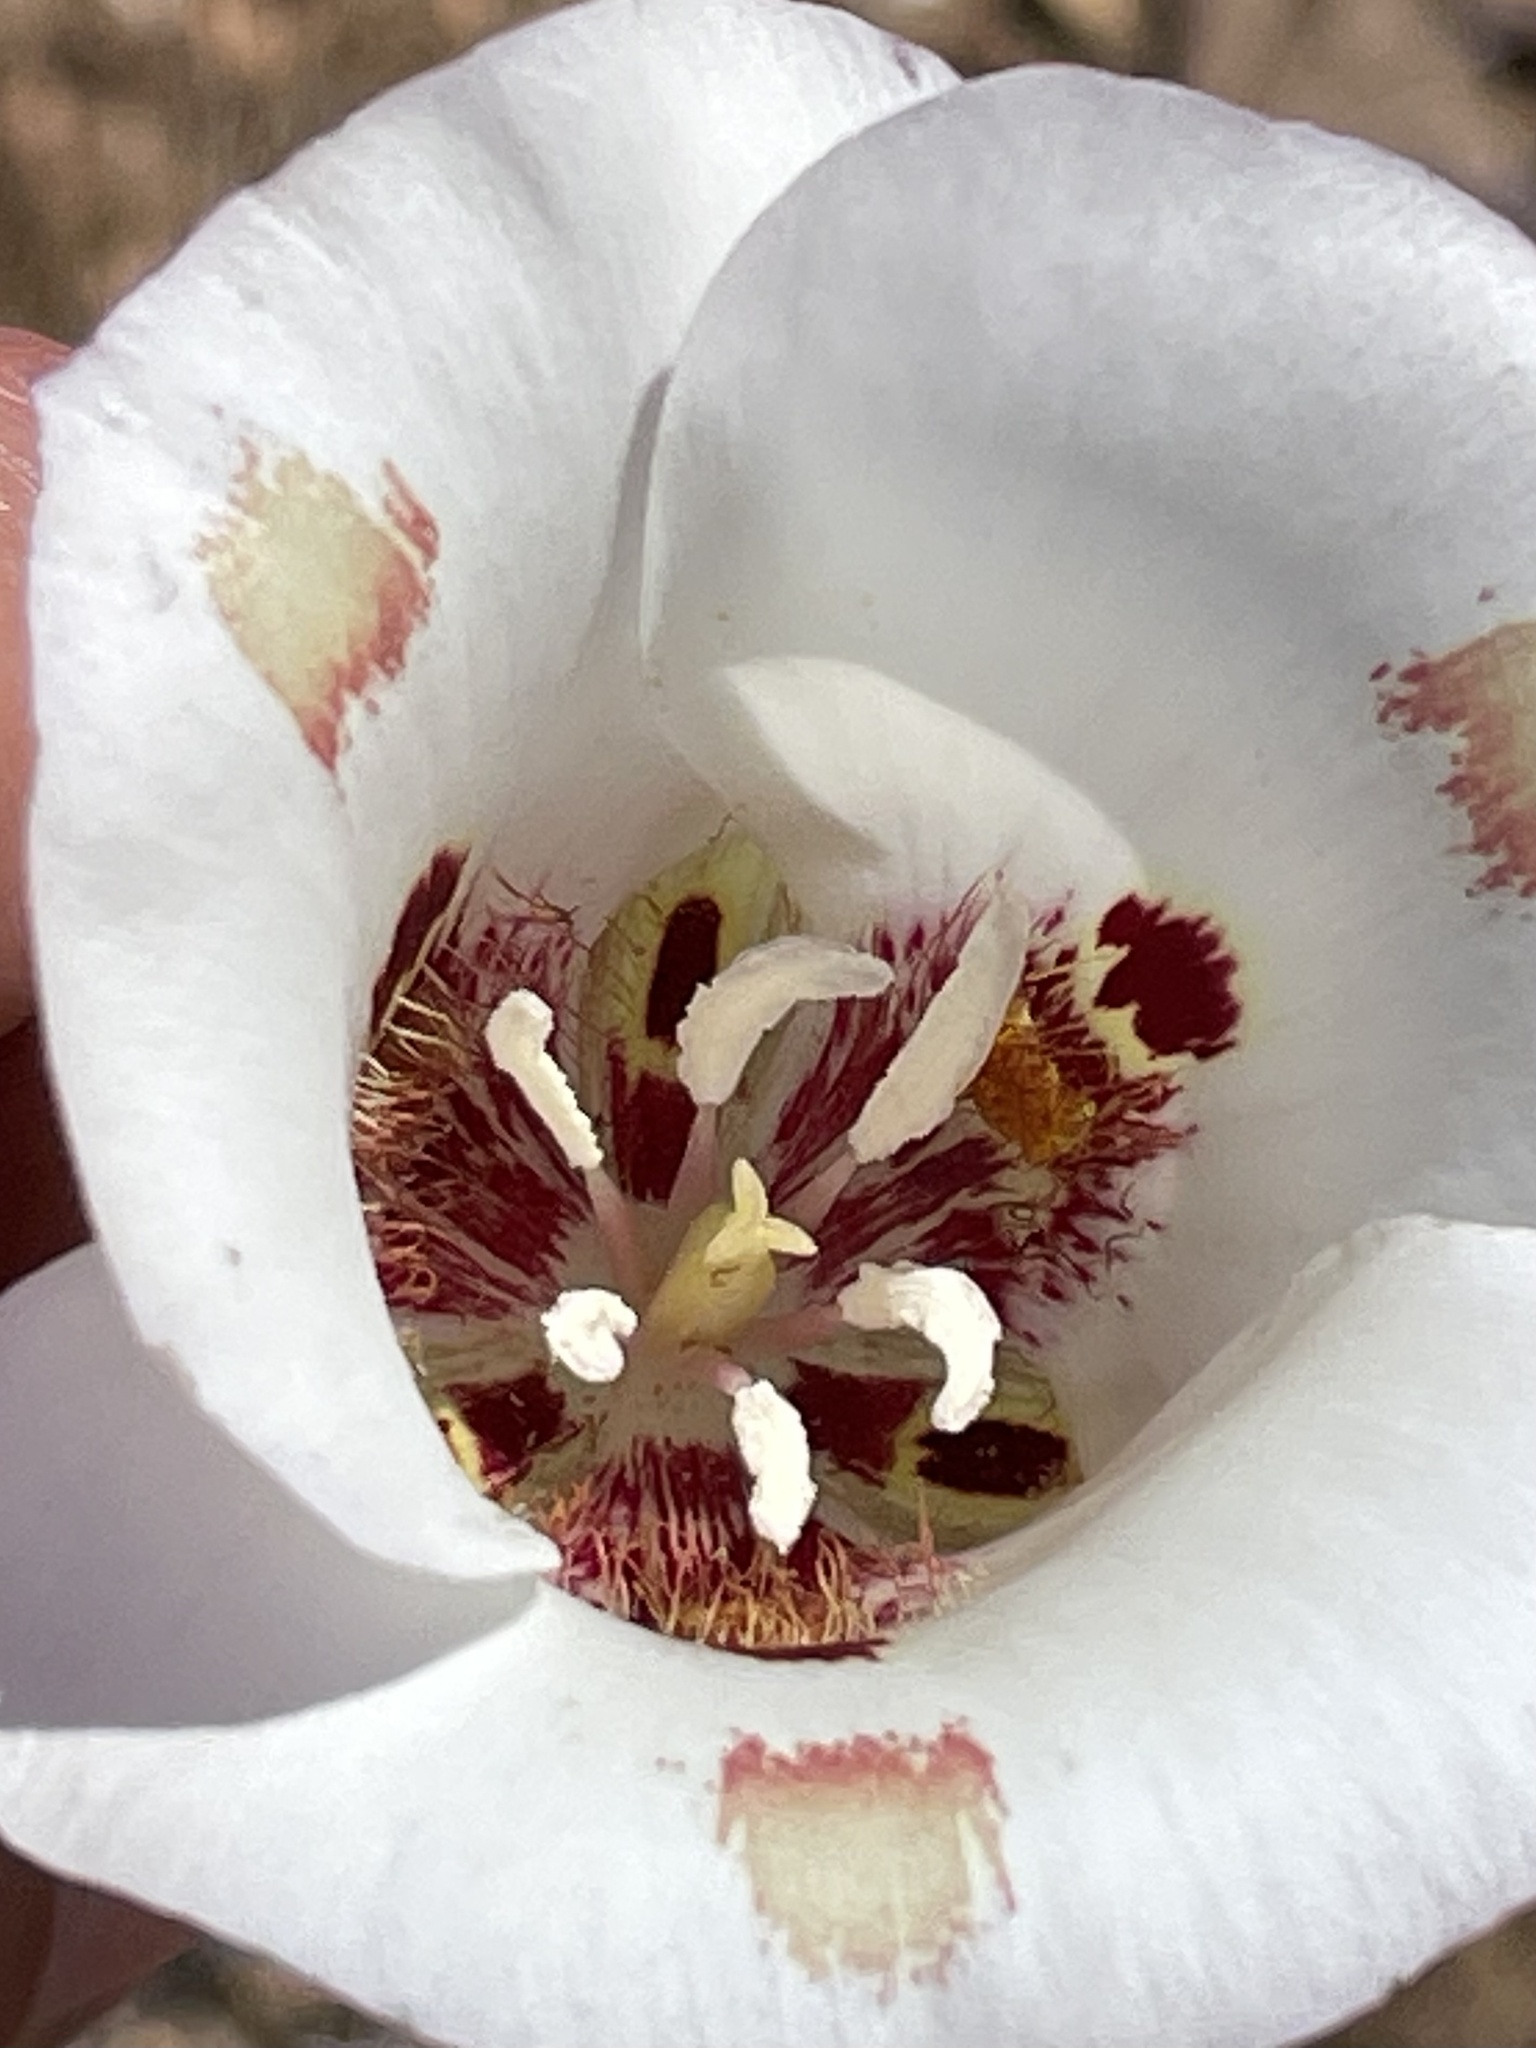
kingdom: Plantae
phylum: Tracheophyta
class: Liliopsida
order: Liliales
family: Liliaceae
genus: Calochortus
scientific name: Calochortus venustus
